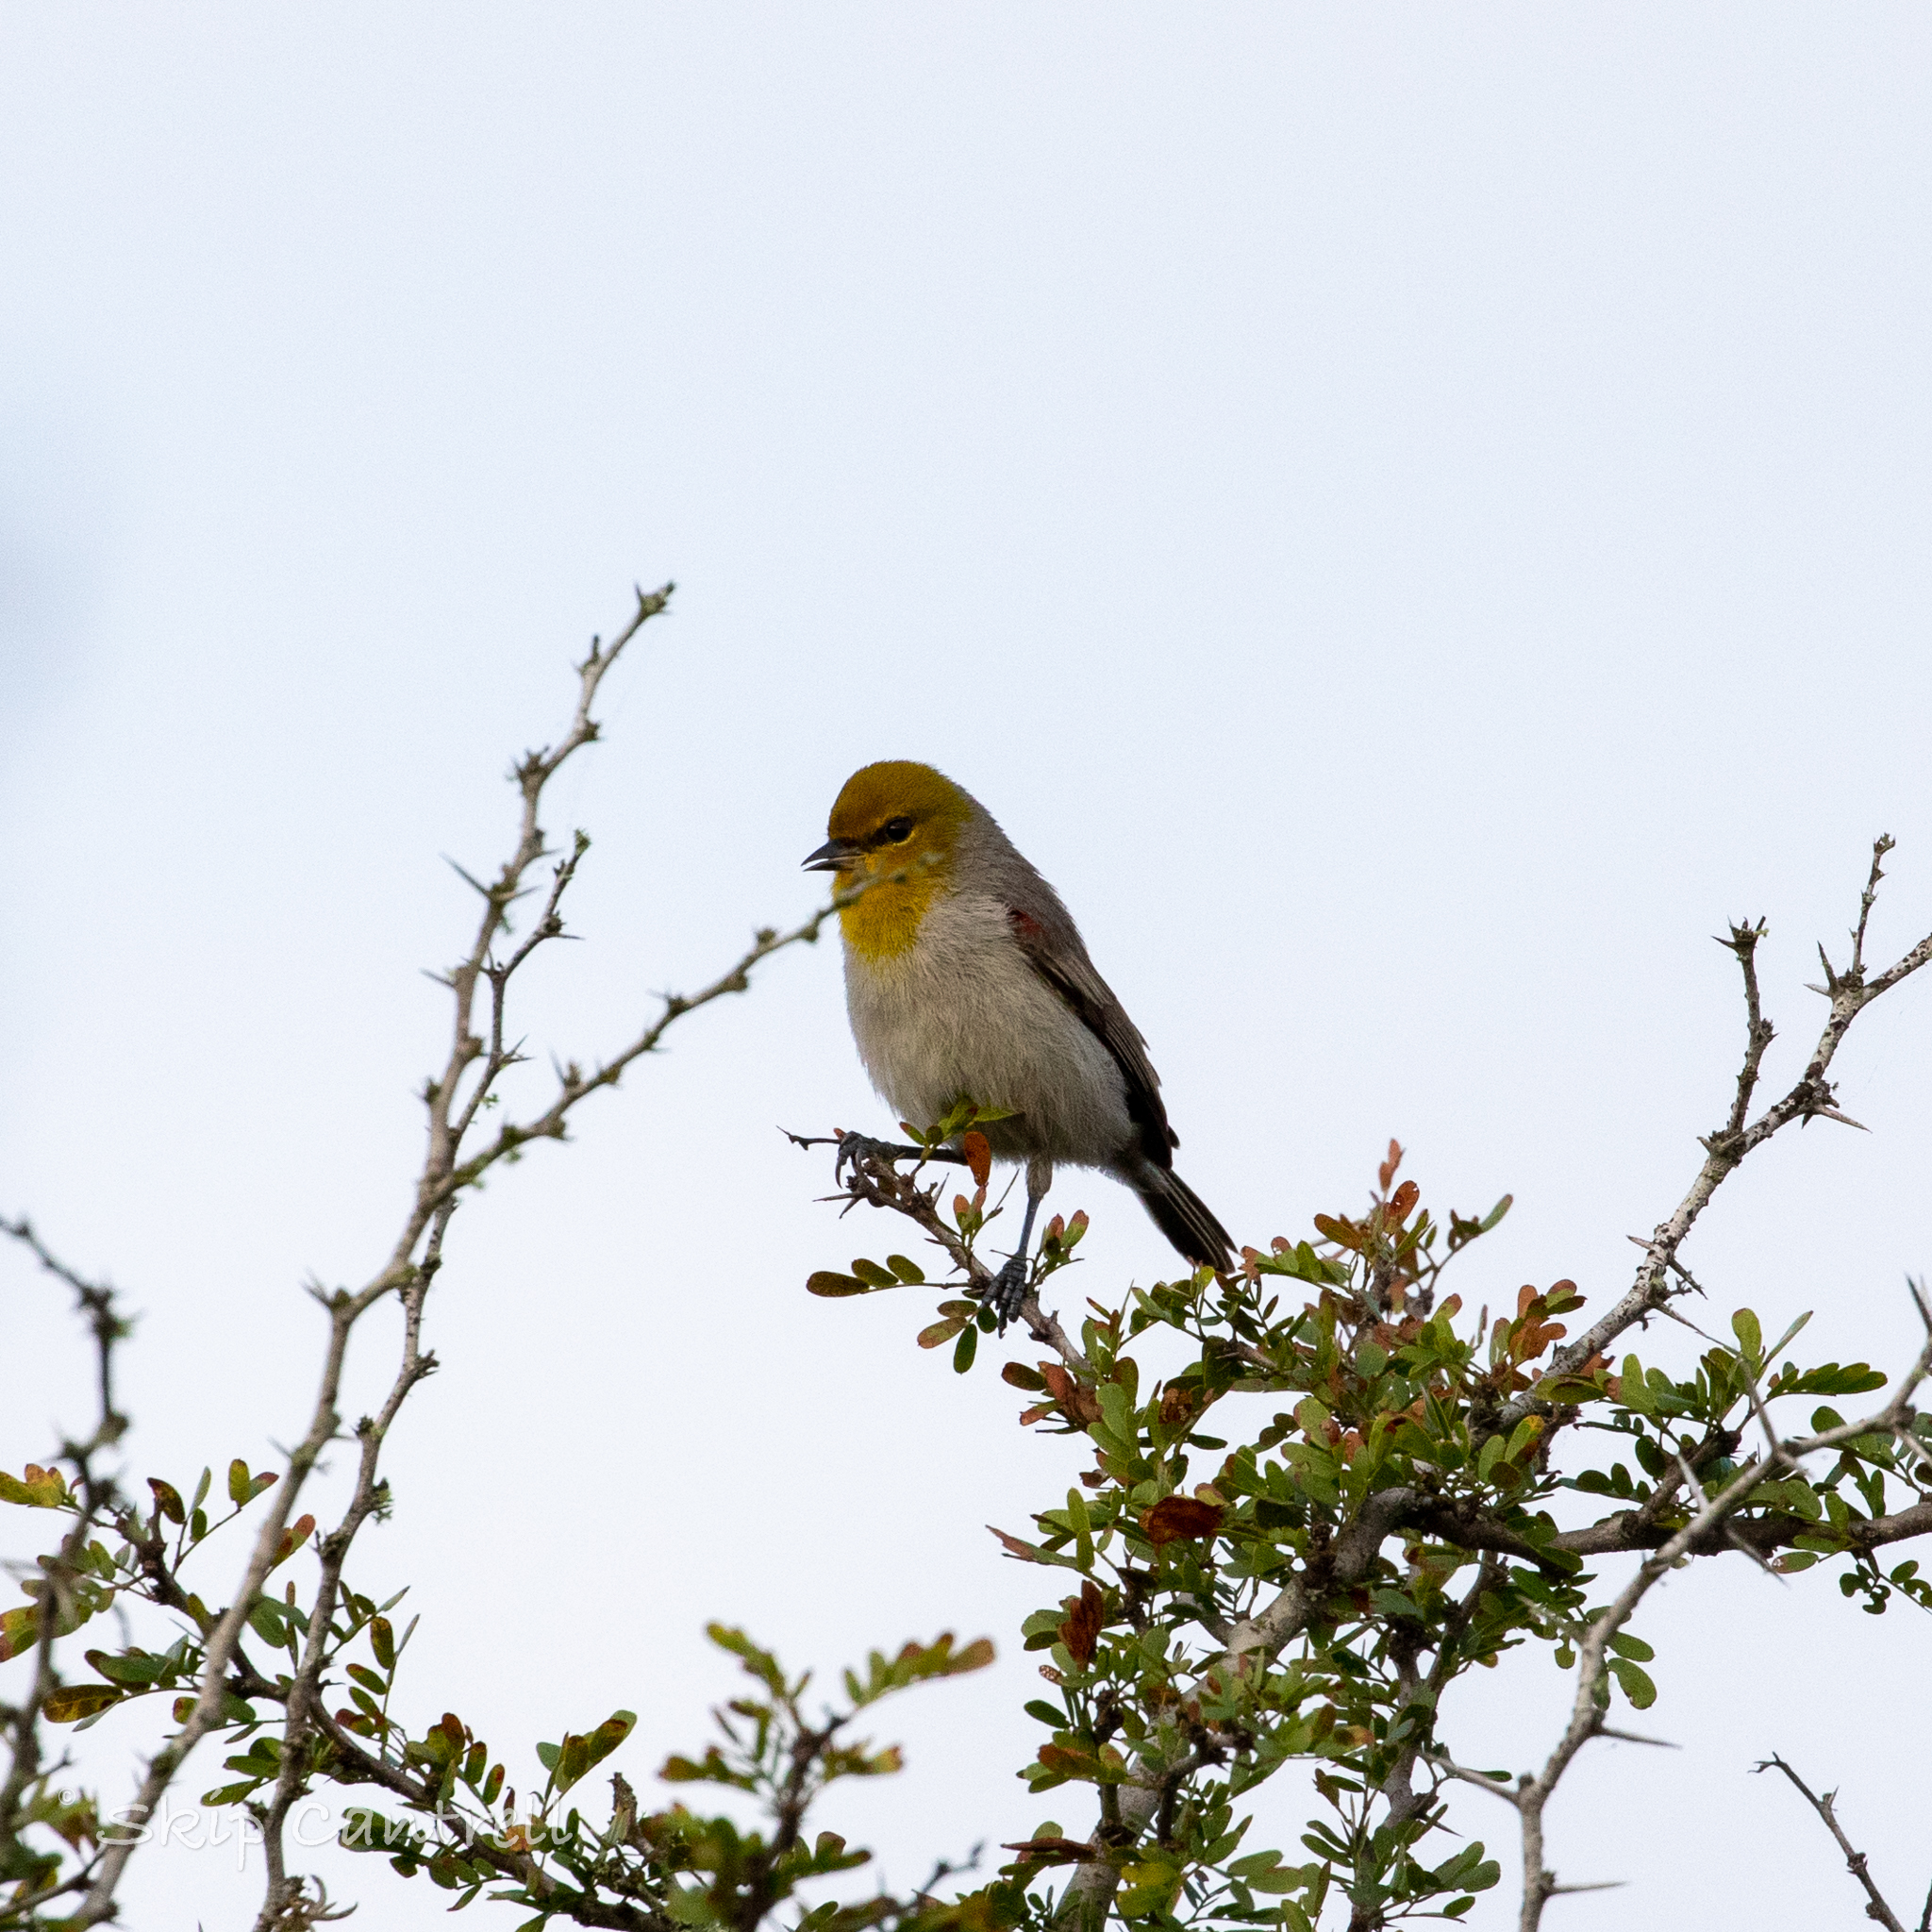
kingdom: Animalia
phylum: Chordata
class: Aves
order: Passeriformes
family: Remizidae
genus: Auriparus
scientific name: Auriparus flaviceps
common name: Verdin
